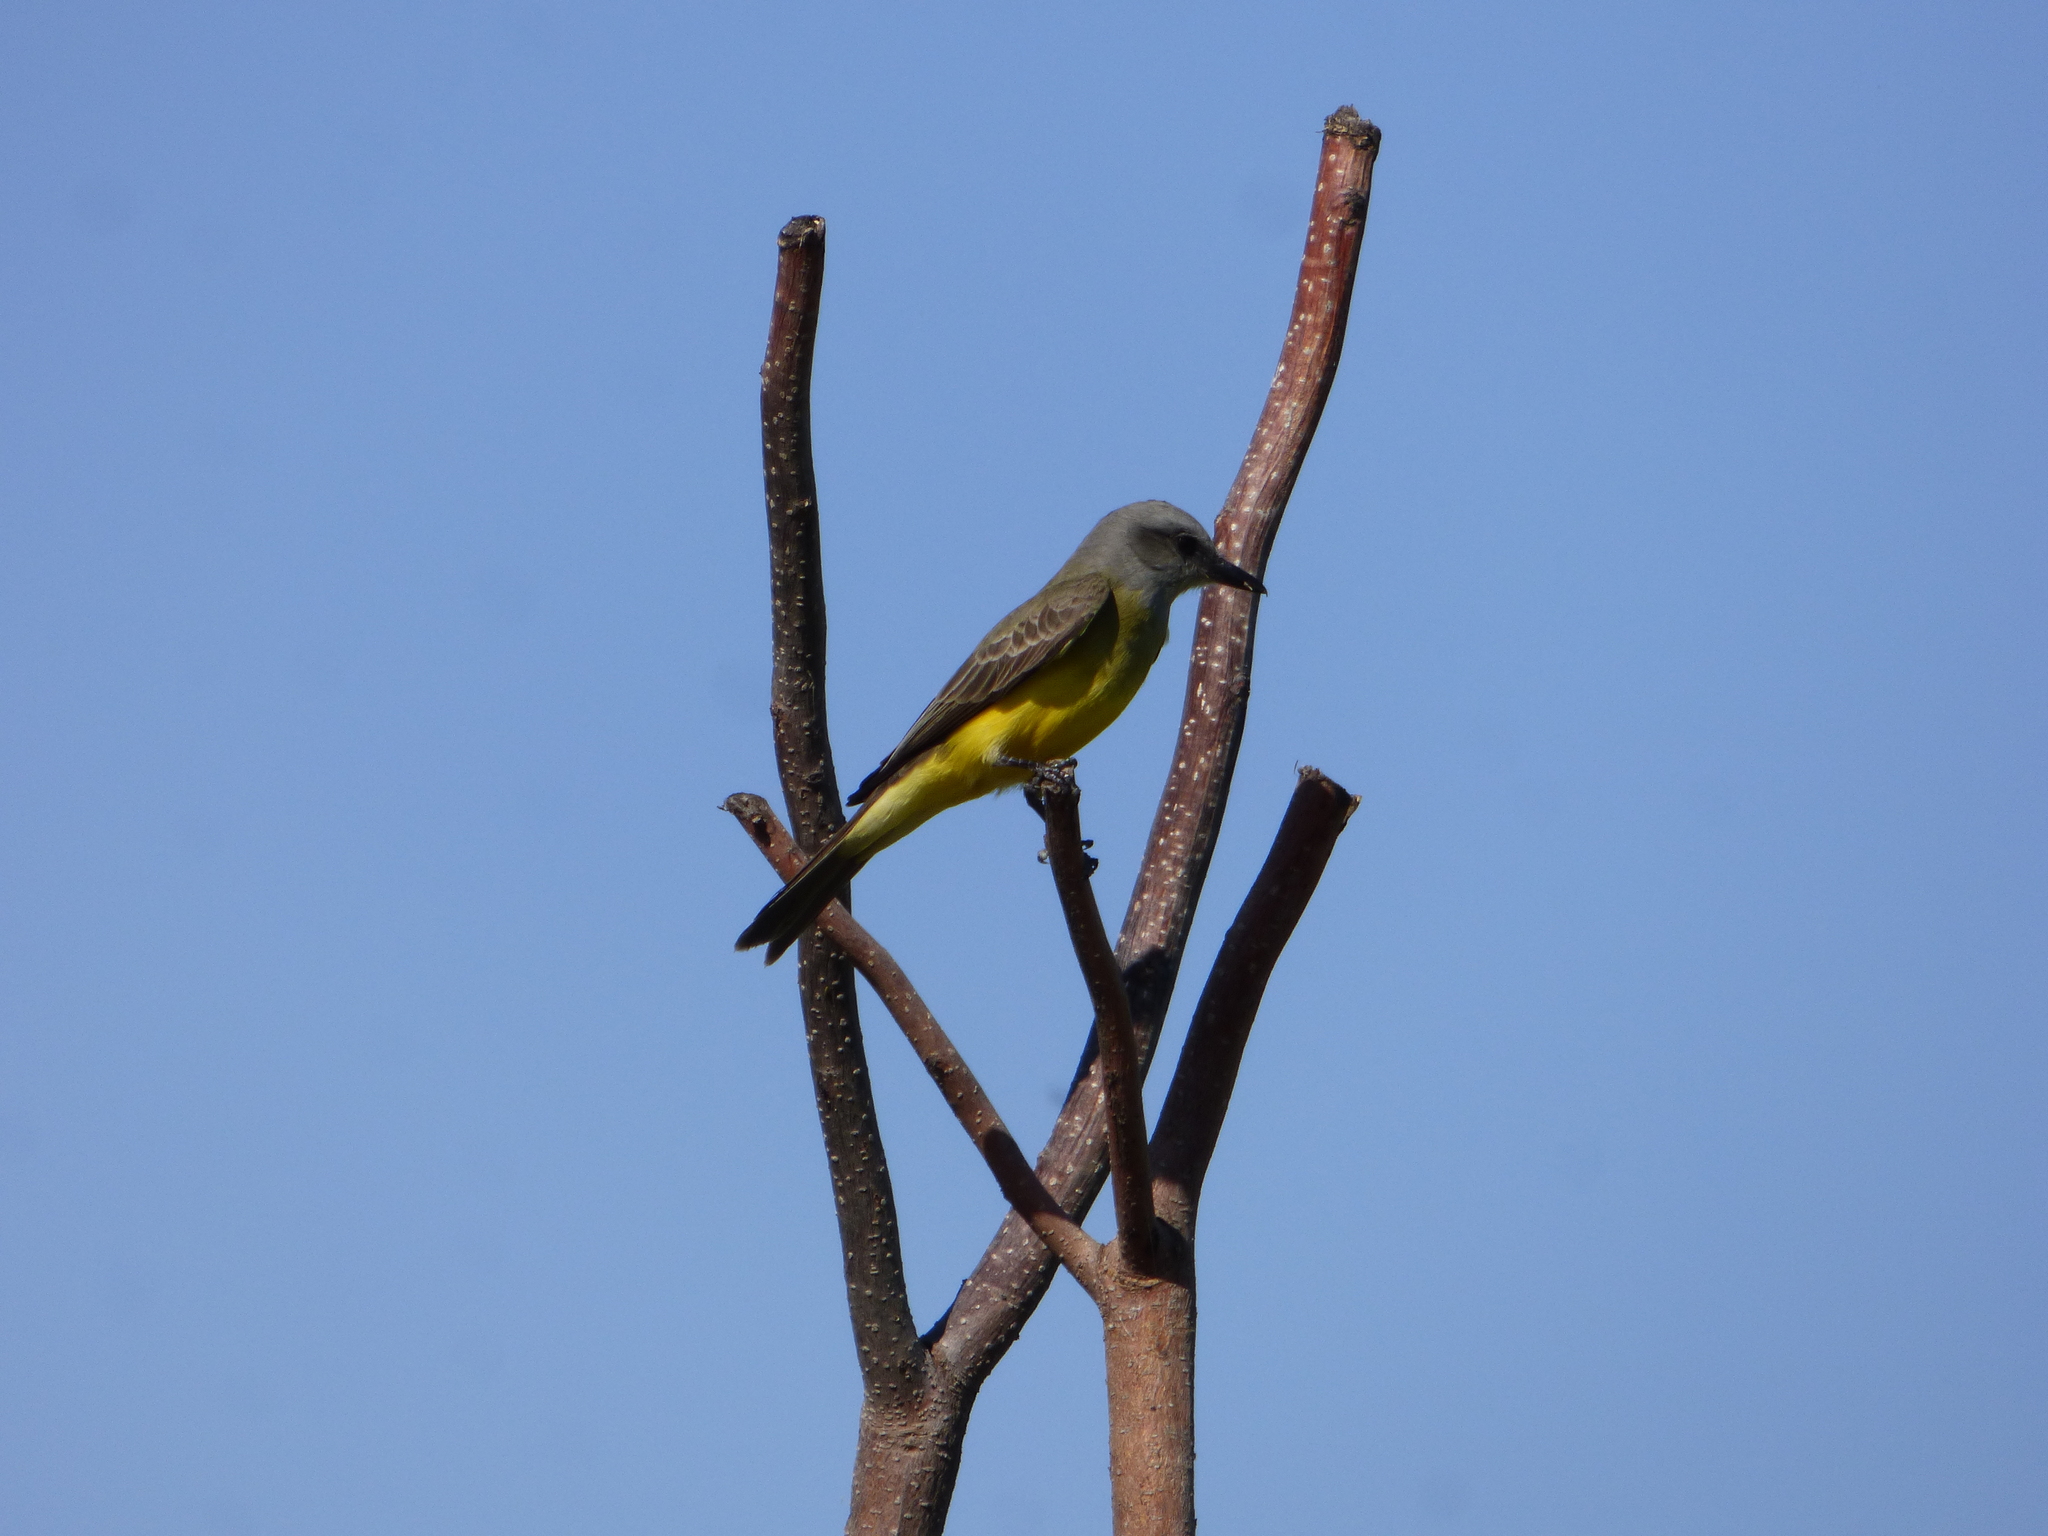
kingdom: Animalia
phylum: Chordata
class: Aves
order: Passeriformes
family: Tyrannidae
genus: Tyrannus
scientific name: Tyrannus melancholicus
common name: Tropical kingbird
